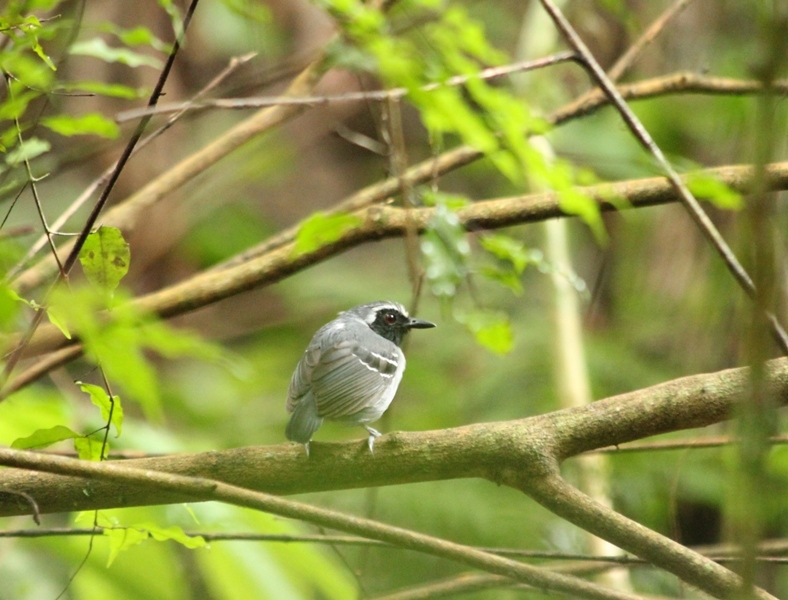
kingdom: Animalia
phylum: Chordata
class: Aves
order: Passeriformes
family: Thamnophilidae
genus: Myrmoborus
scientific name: Myrmoborus myotherinus
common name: Black-faced antbird
